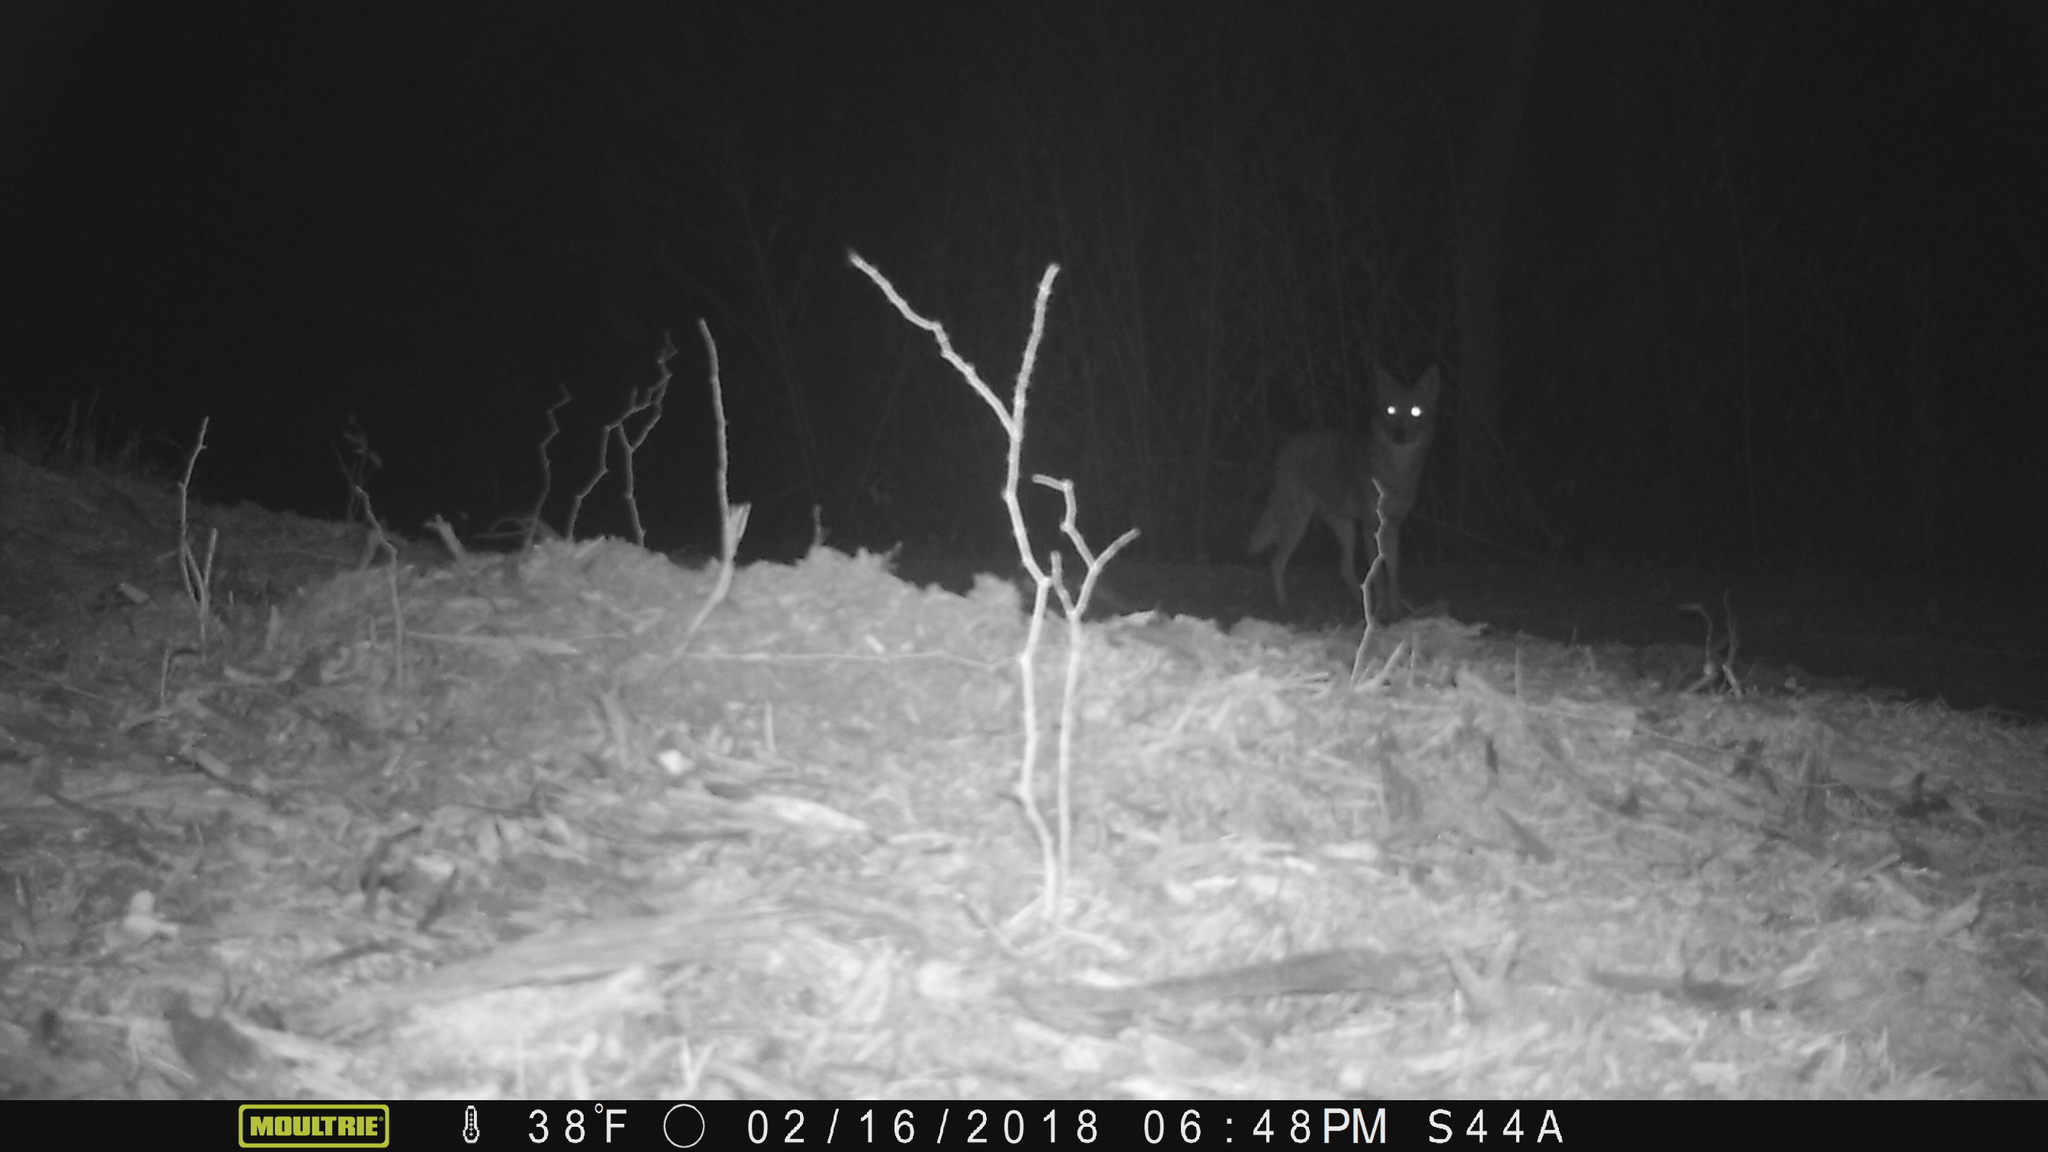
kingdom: Animalia
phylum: Chordata
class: Mammalia
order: Carnivora
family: Canidae
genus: Canis
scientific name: Canis latrans
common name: Coyote
